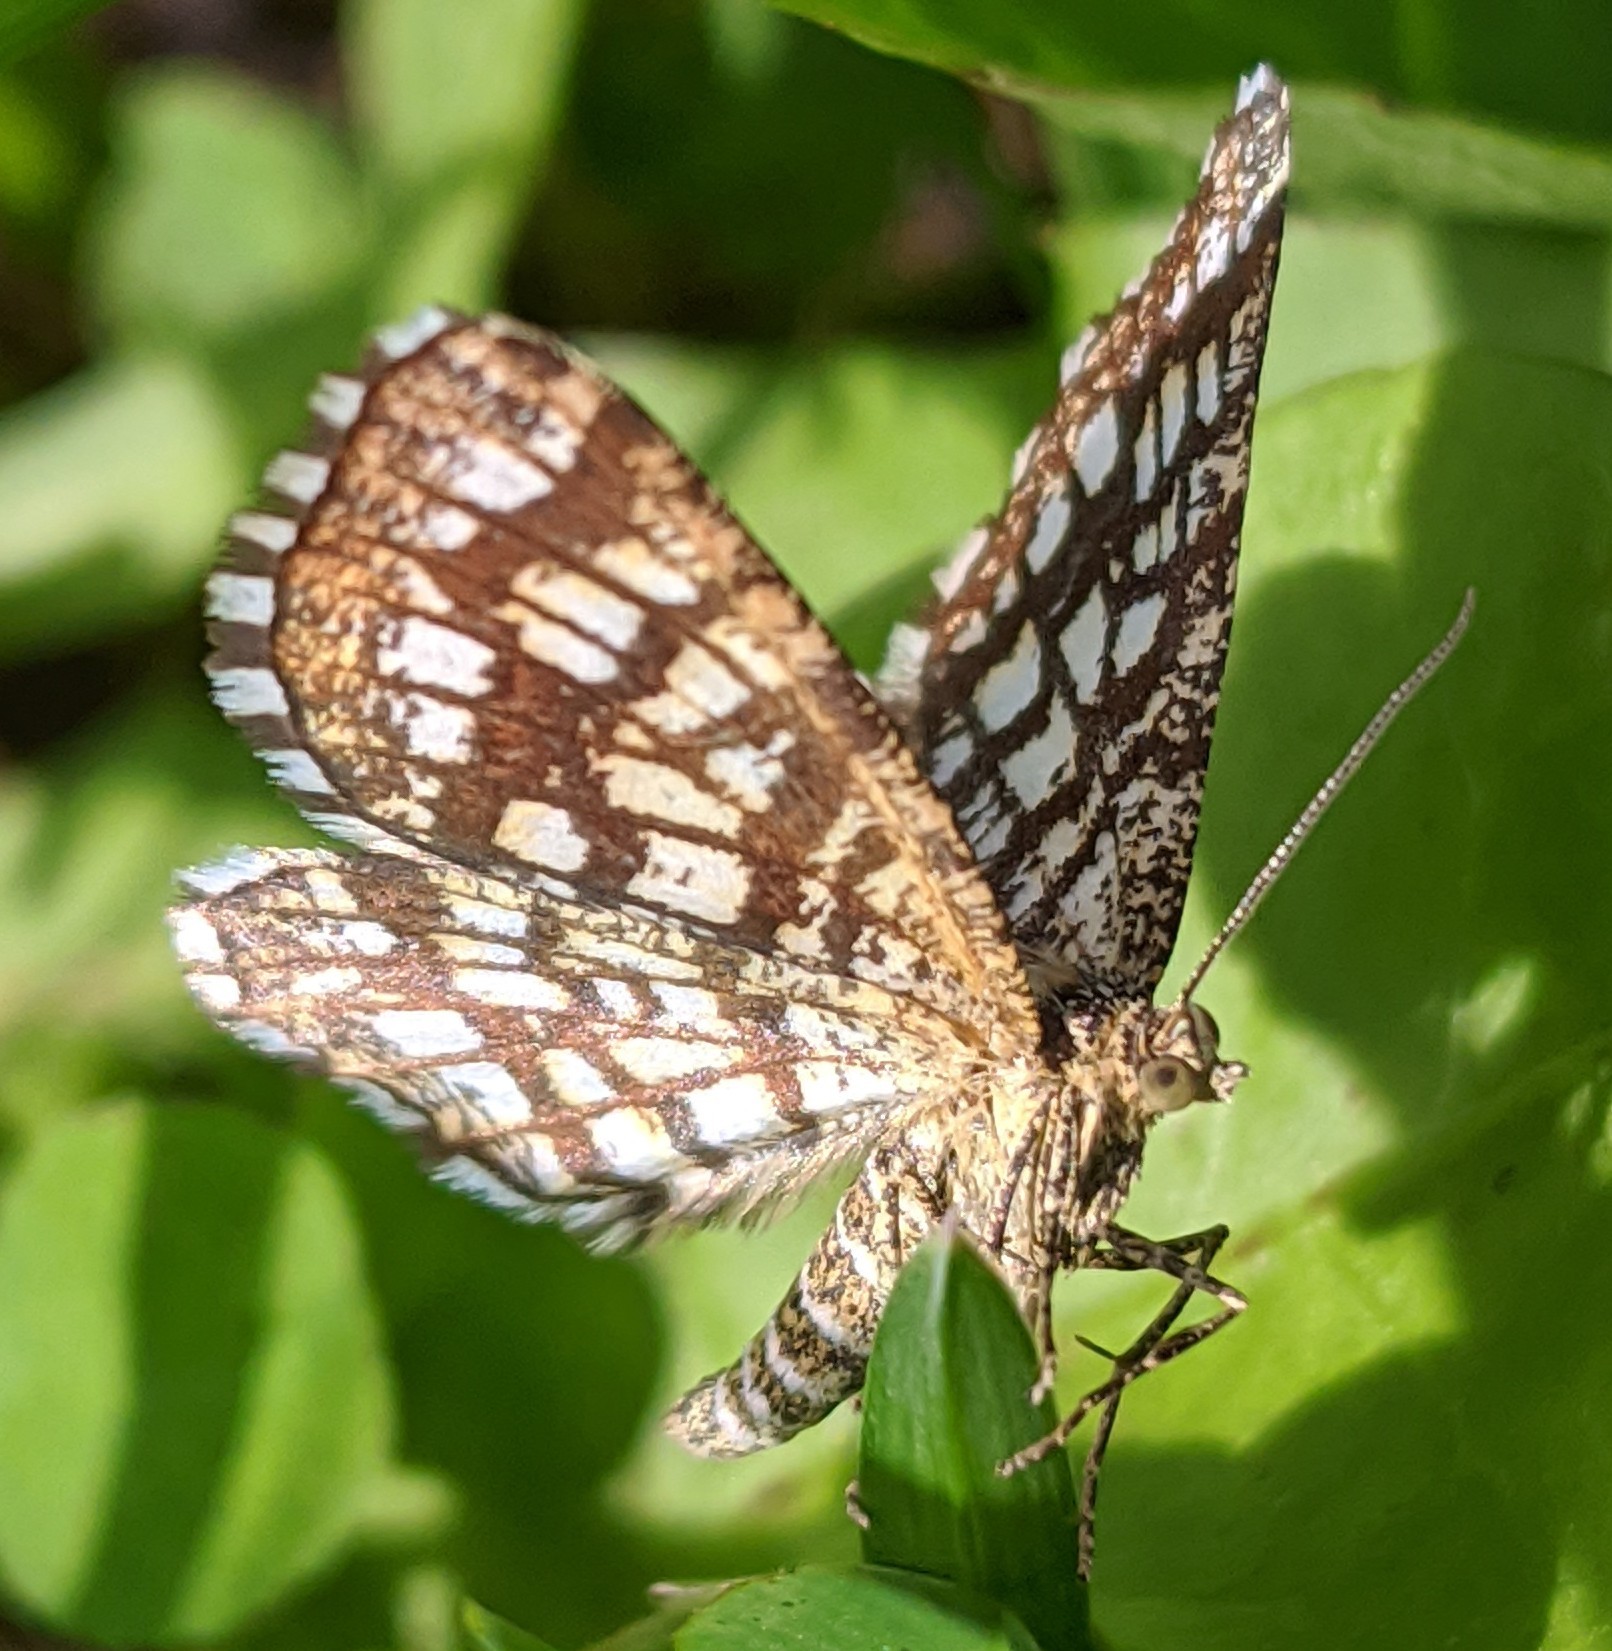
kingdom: Animalia
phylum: Arthropoda
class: Insecta
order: Lepidoptera
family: Geometridae
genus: Chiasmia
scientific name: Chiasmia clathrata
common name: Latticed heath
